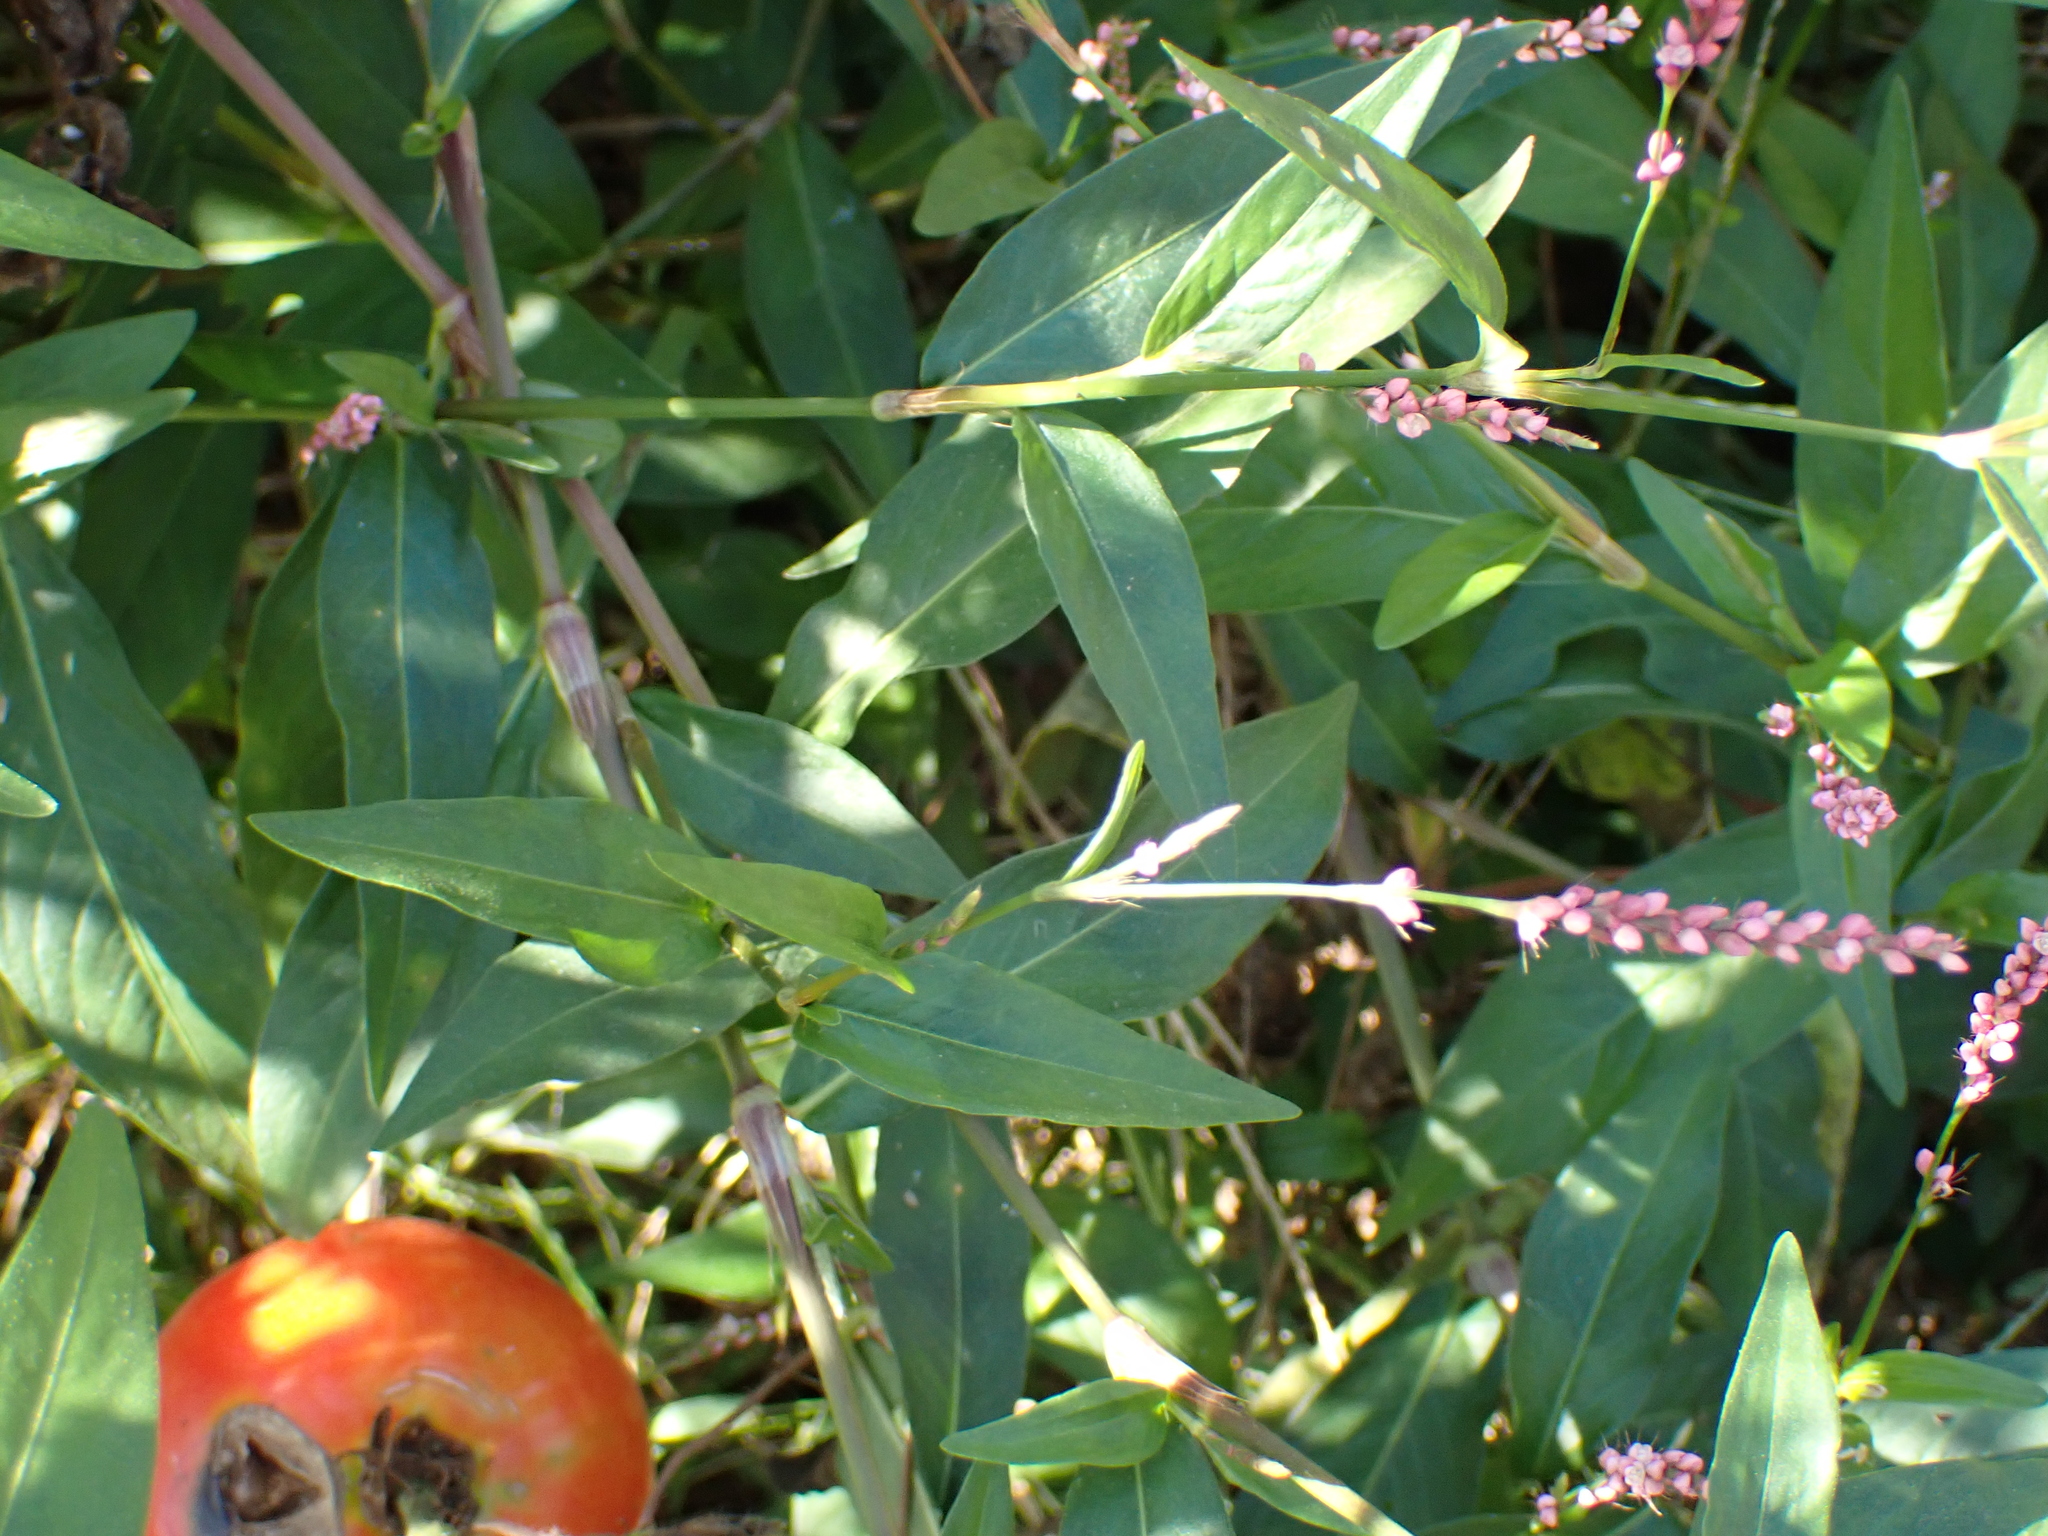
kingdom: Plantae
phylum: Tracheophyta
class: Magnoliopsida
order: Caryophyllales
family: Polygonaceae
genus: Persicaria
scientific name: Persicaria longiseta
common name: Bristly lady's-thumb
